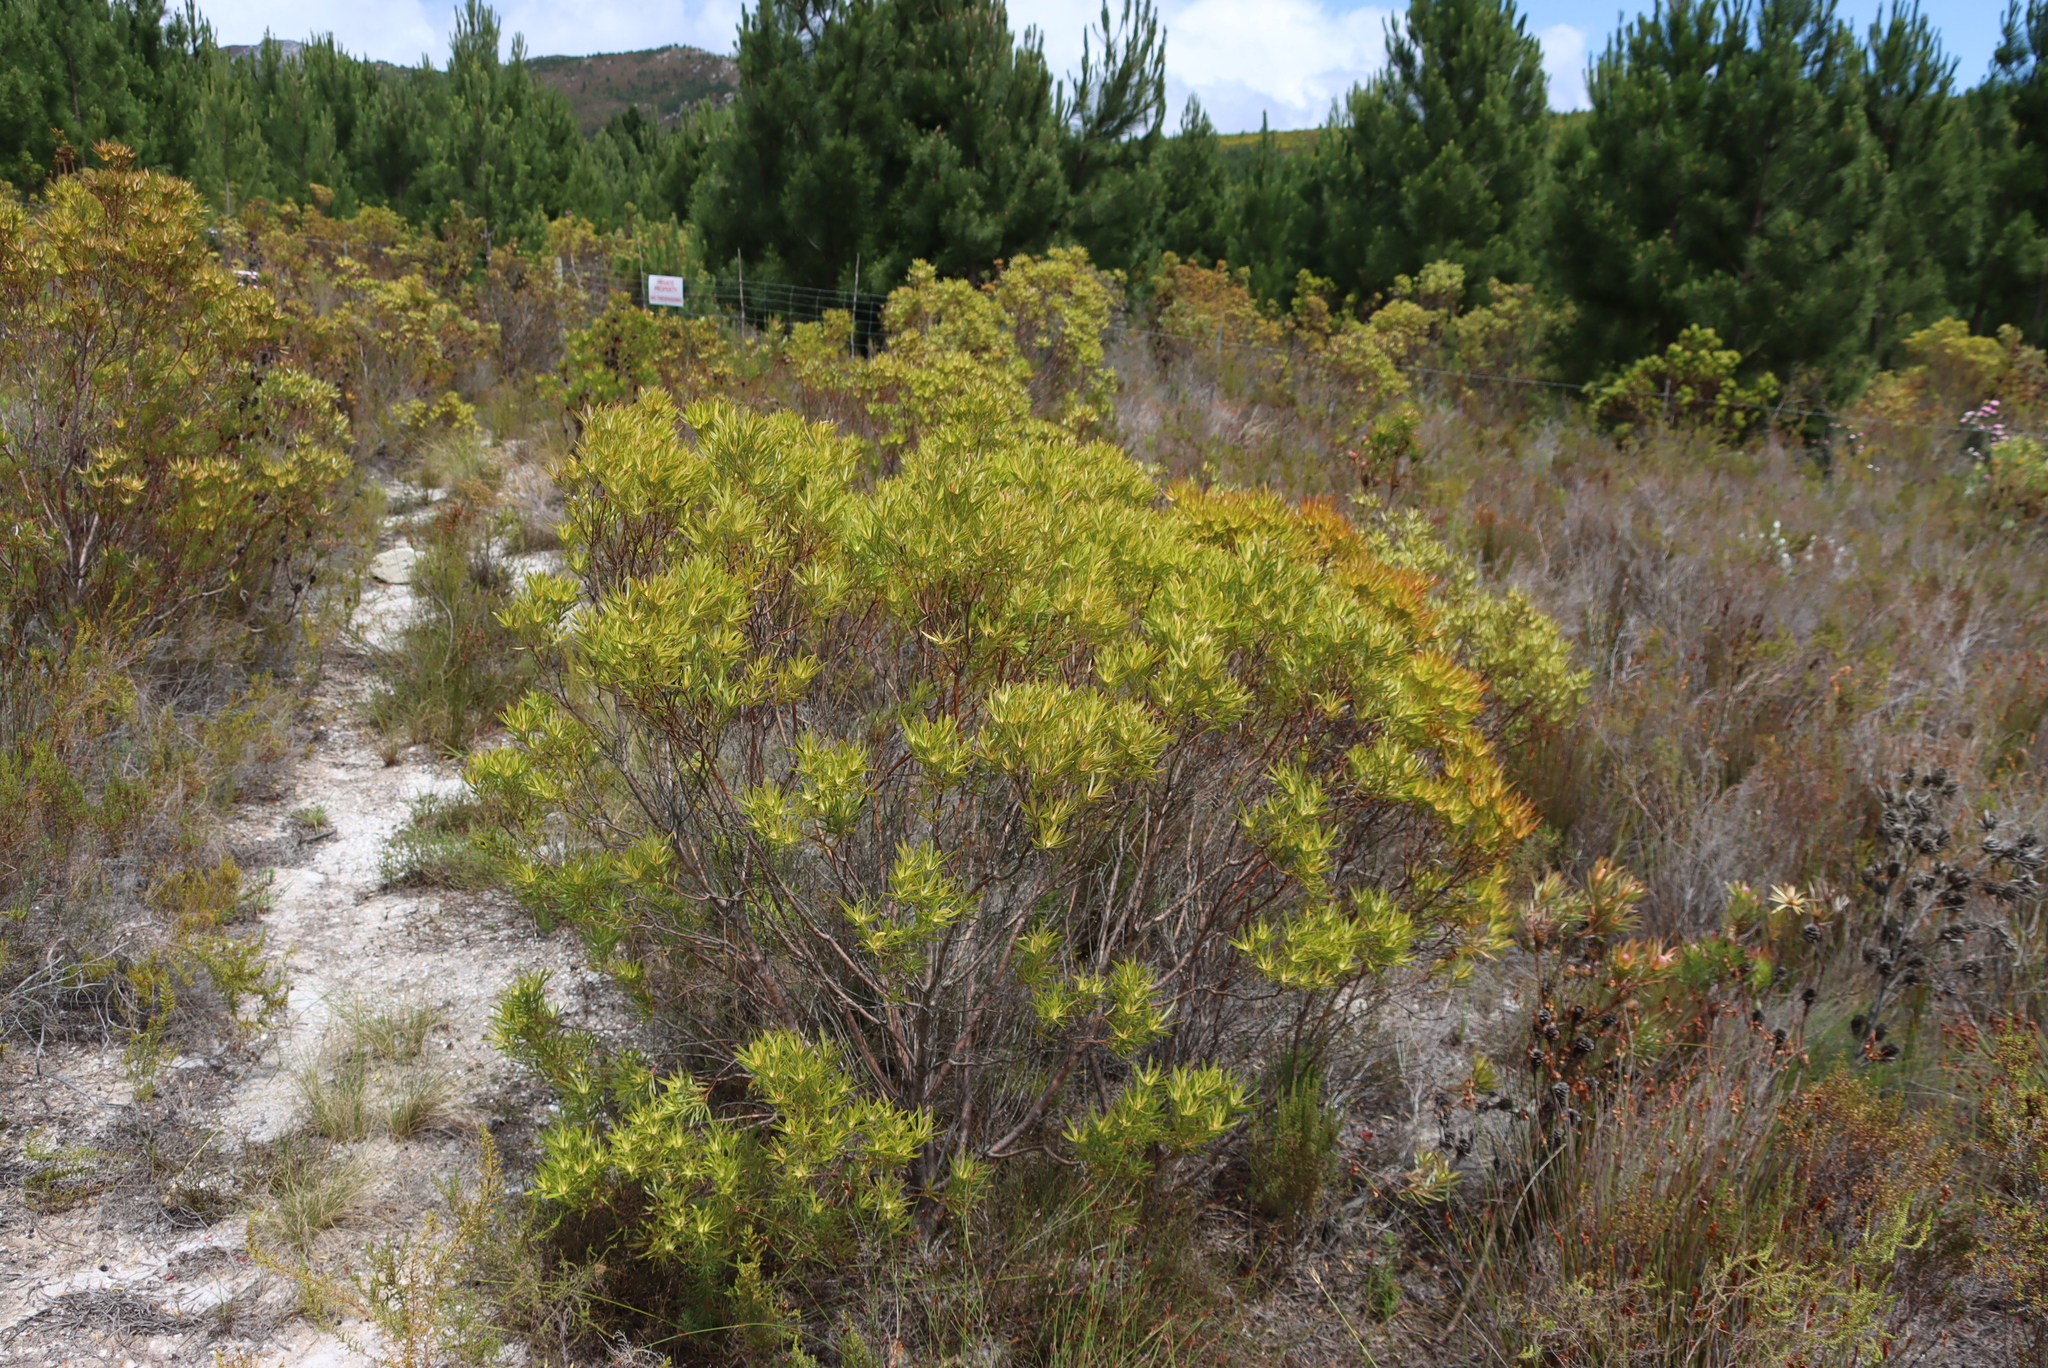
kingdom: Plantae
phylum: Tracheophyta
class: Magnoliopsida
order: Proteales
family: Proteaceae
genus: Leucadendron
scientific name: Leucadendron xanthoconus
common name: Sickle-leaf conebush
